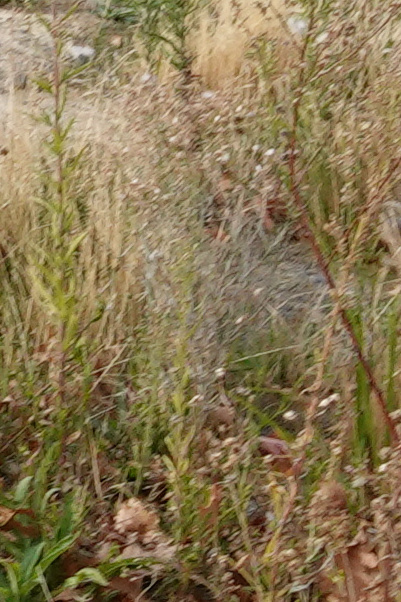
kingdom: Plantae
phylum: Tracheophyta
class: Magnoliopsida
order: Asterales
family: Asteraceae
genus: Senecio
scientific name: Senecio quadridentatus
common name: Cotton fireweed
